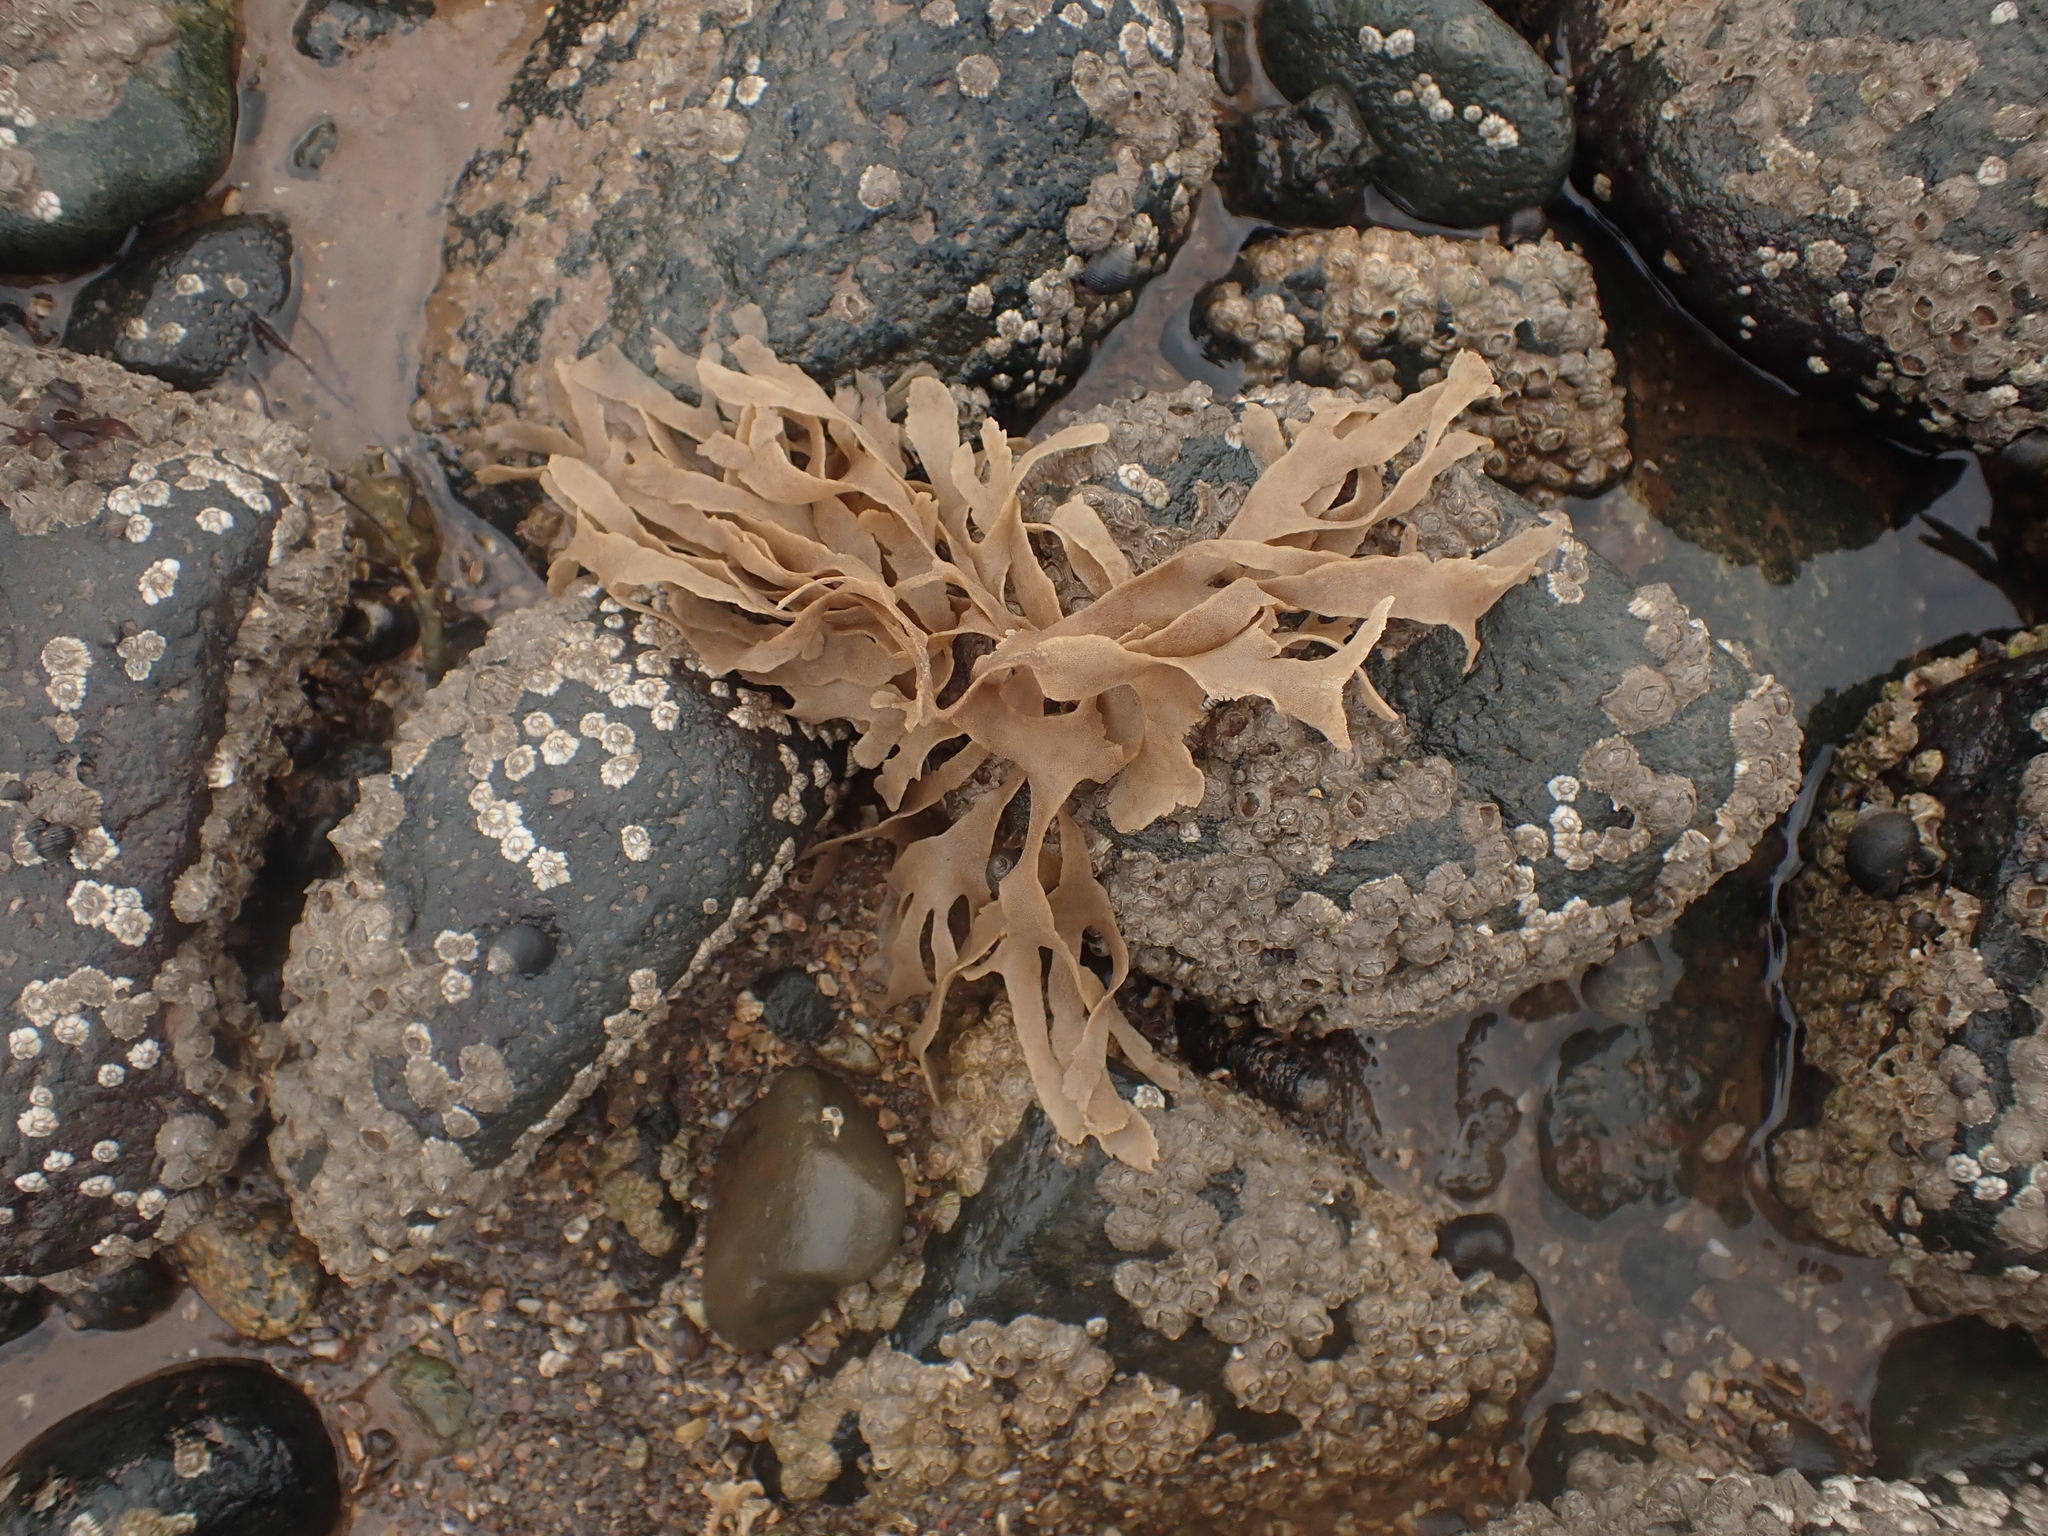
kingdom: Animalia
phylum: Bryozoa
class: Gymnolaemata
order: Cheilostomatida
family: Flustridae
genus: Flustra
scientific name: Flustra foliacea
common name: Hornwrack
